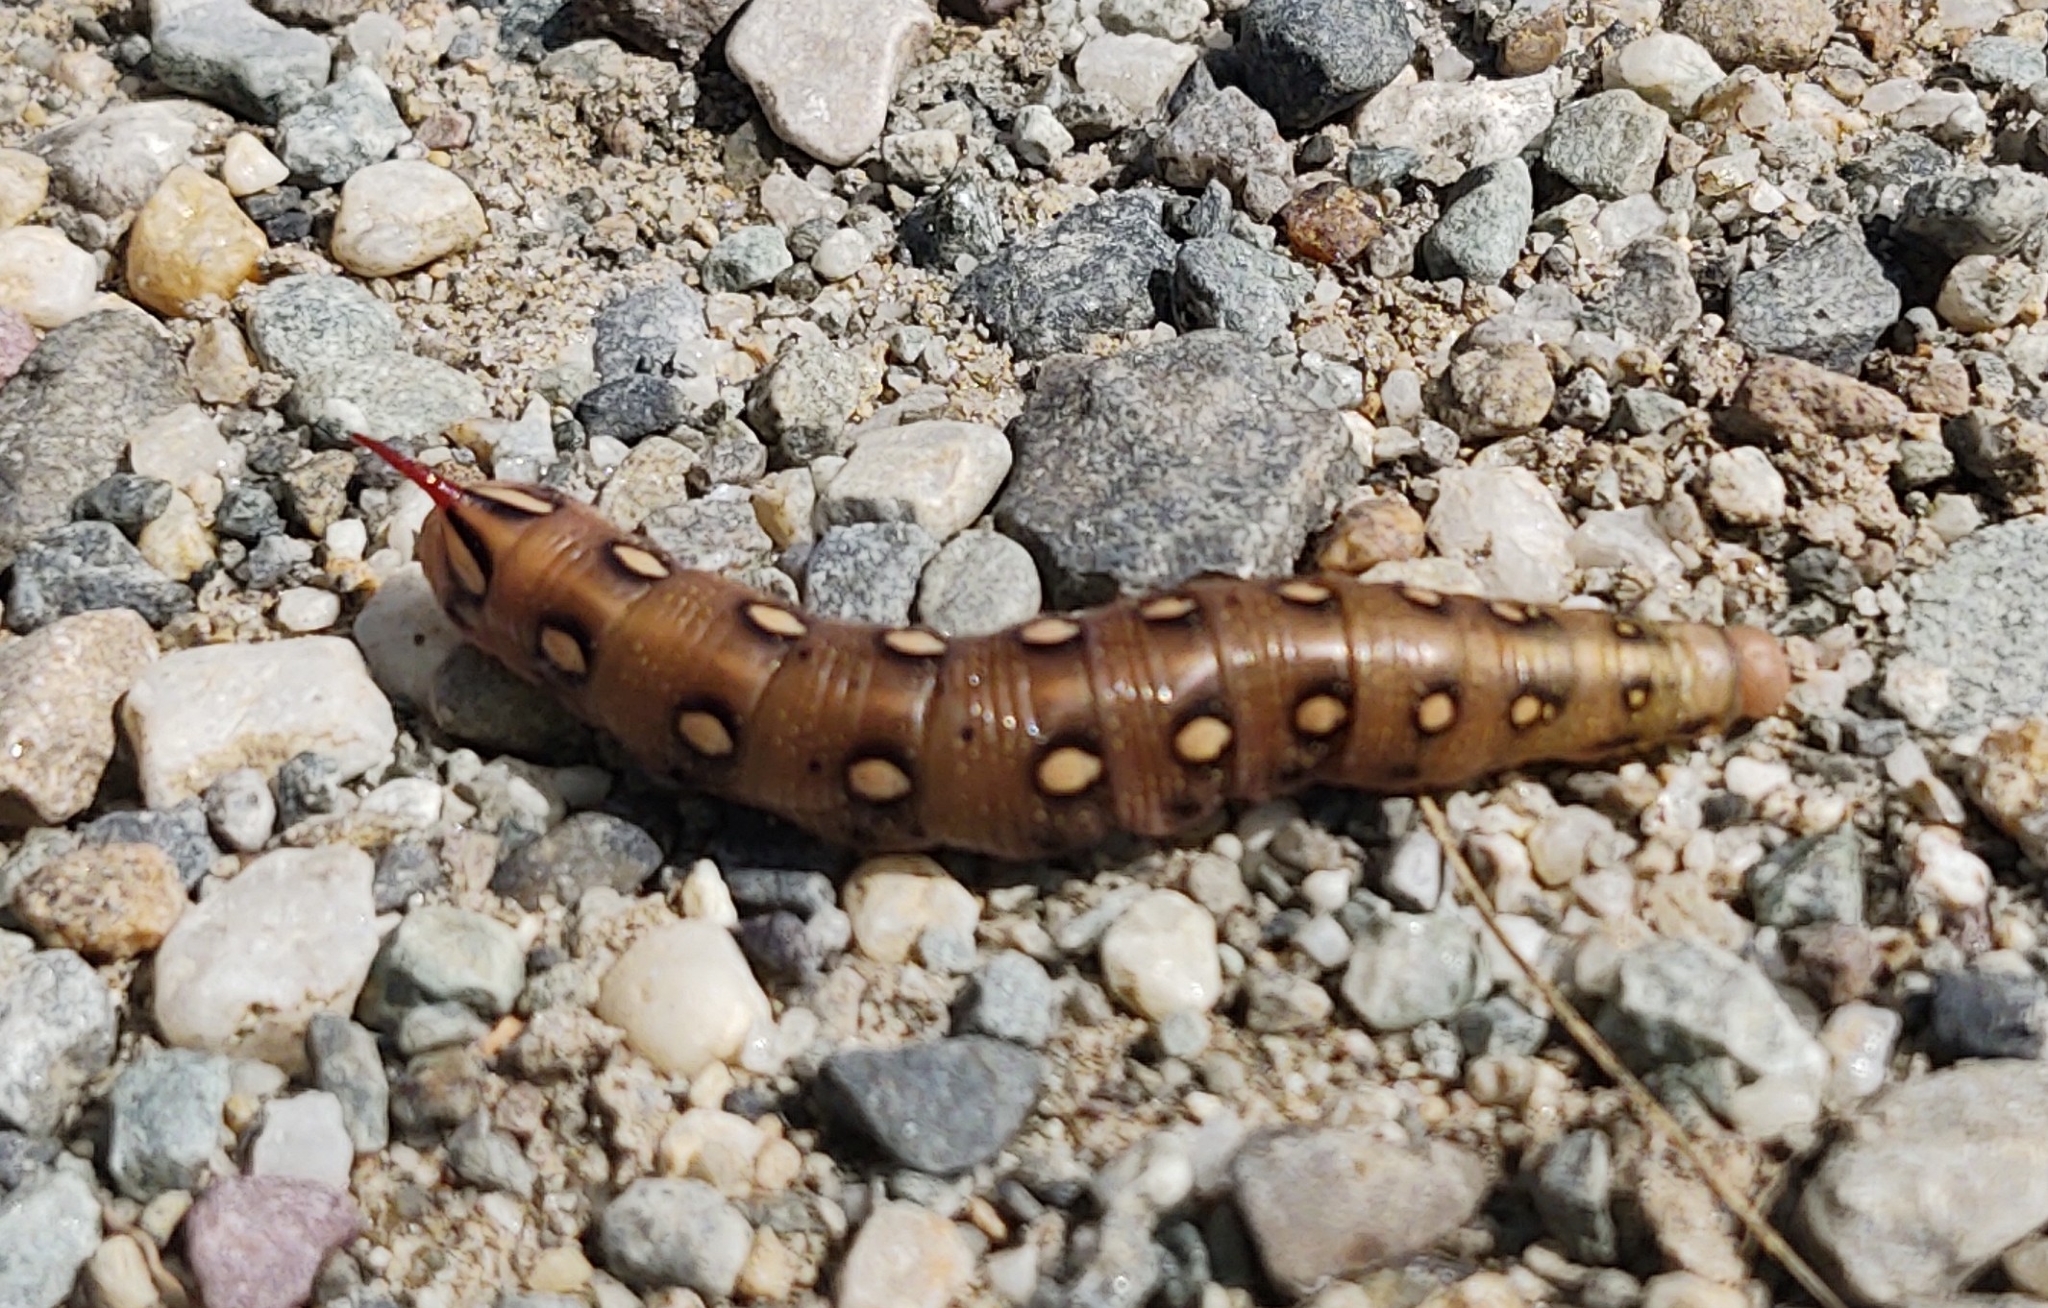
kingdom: Animalia
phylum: Arthropoda
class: Insecta
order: Lepidoptera
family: Sphingidae
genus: Hyles
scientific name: Hyles gallii
